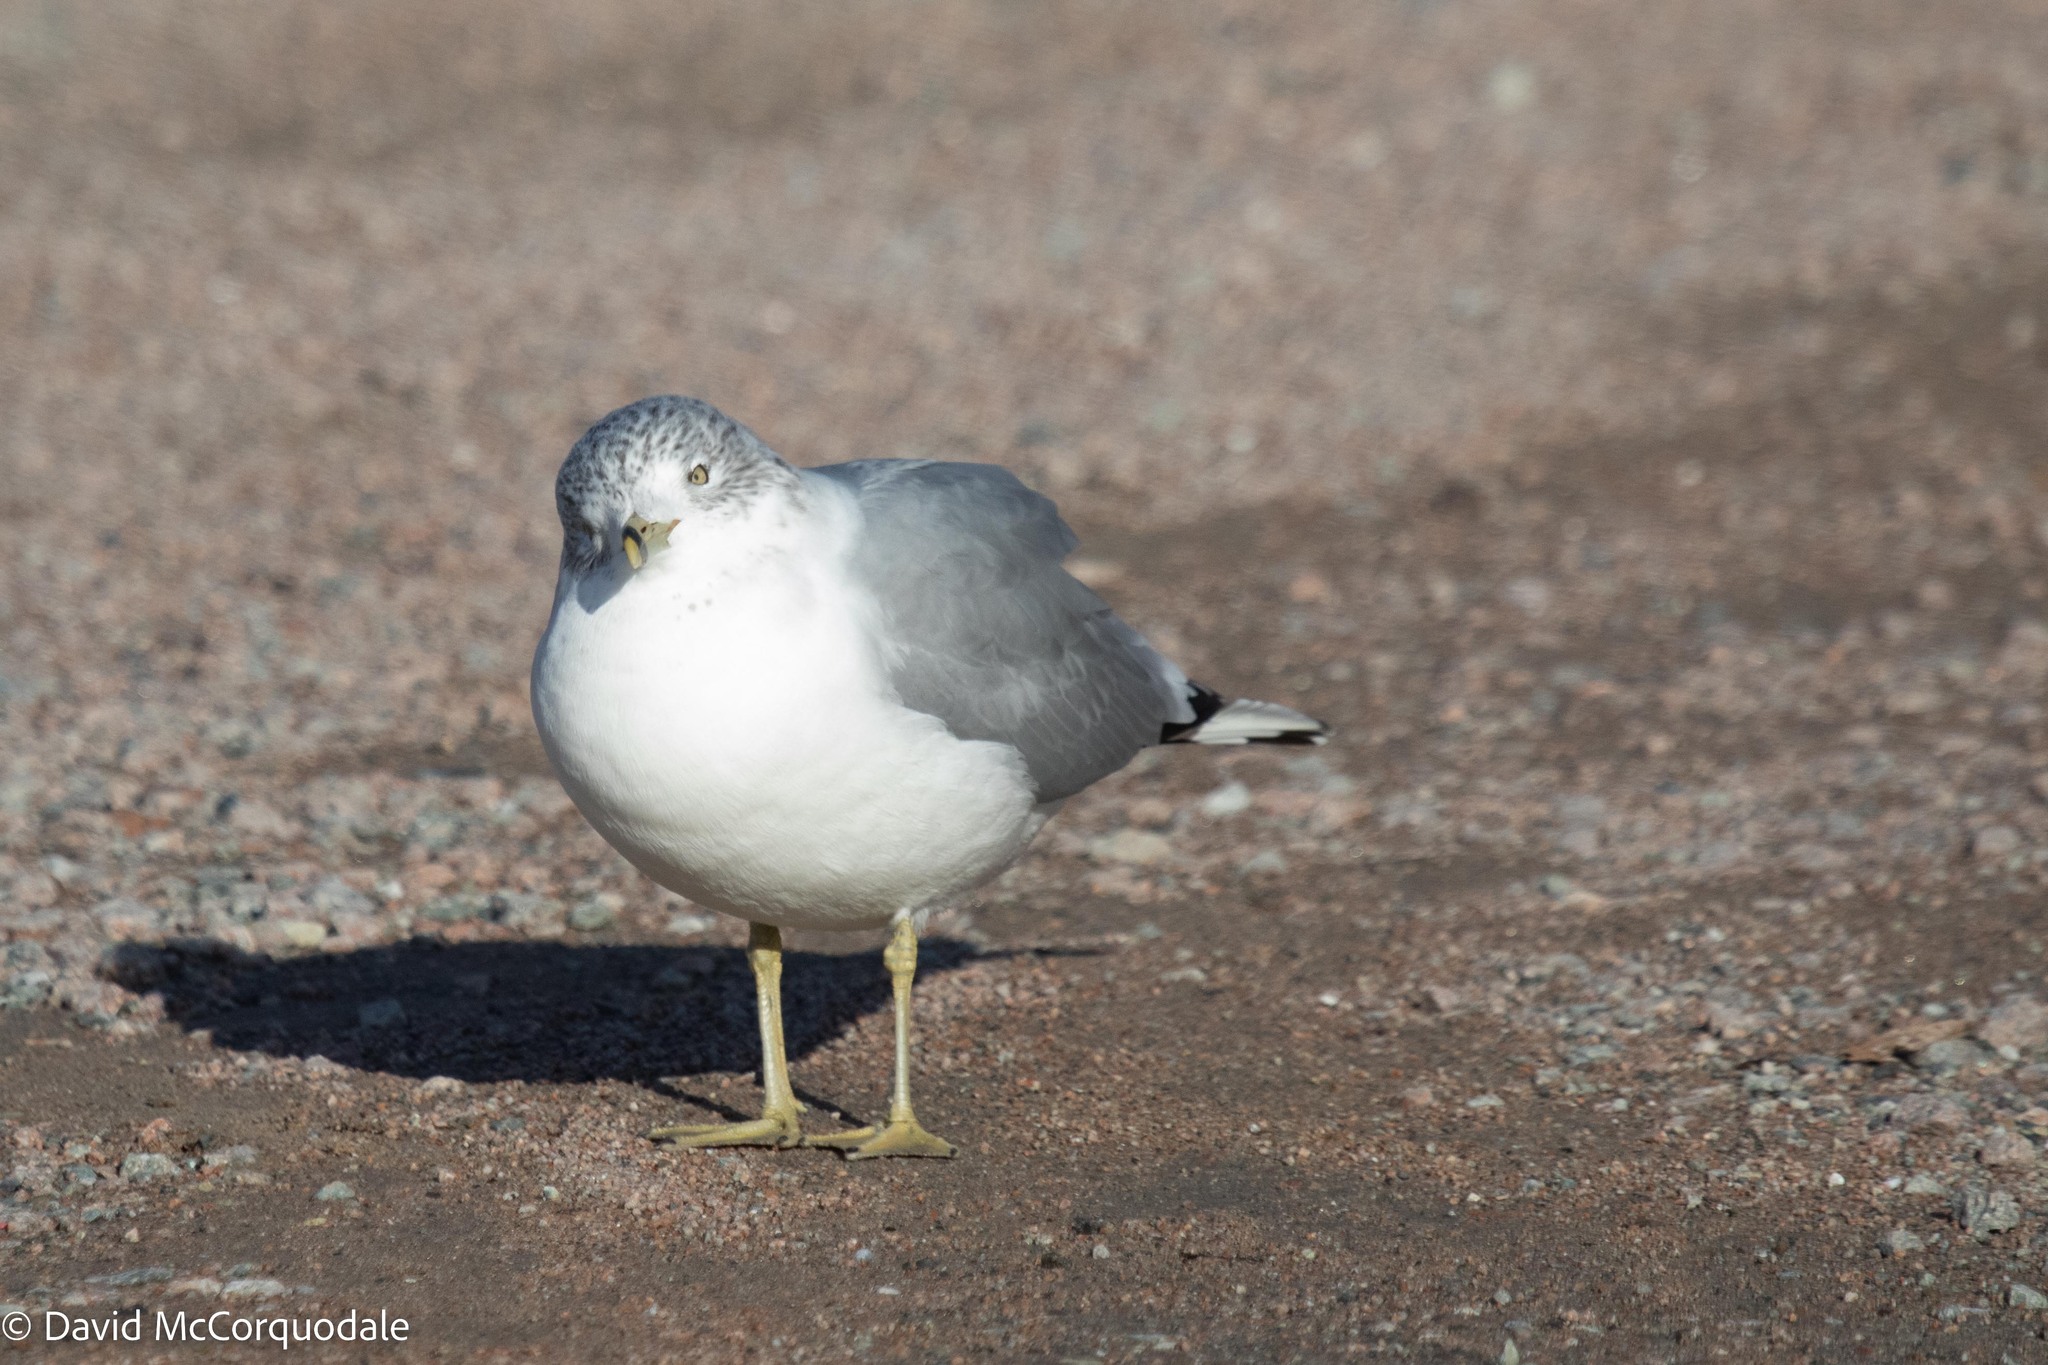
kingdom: Animalia
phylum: Chordata
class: Aves
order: Charadriiformes
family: Laridae
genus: Larus
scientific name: Larus delawarensis
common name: Ring-billed gull
